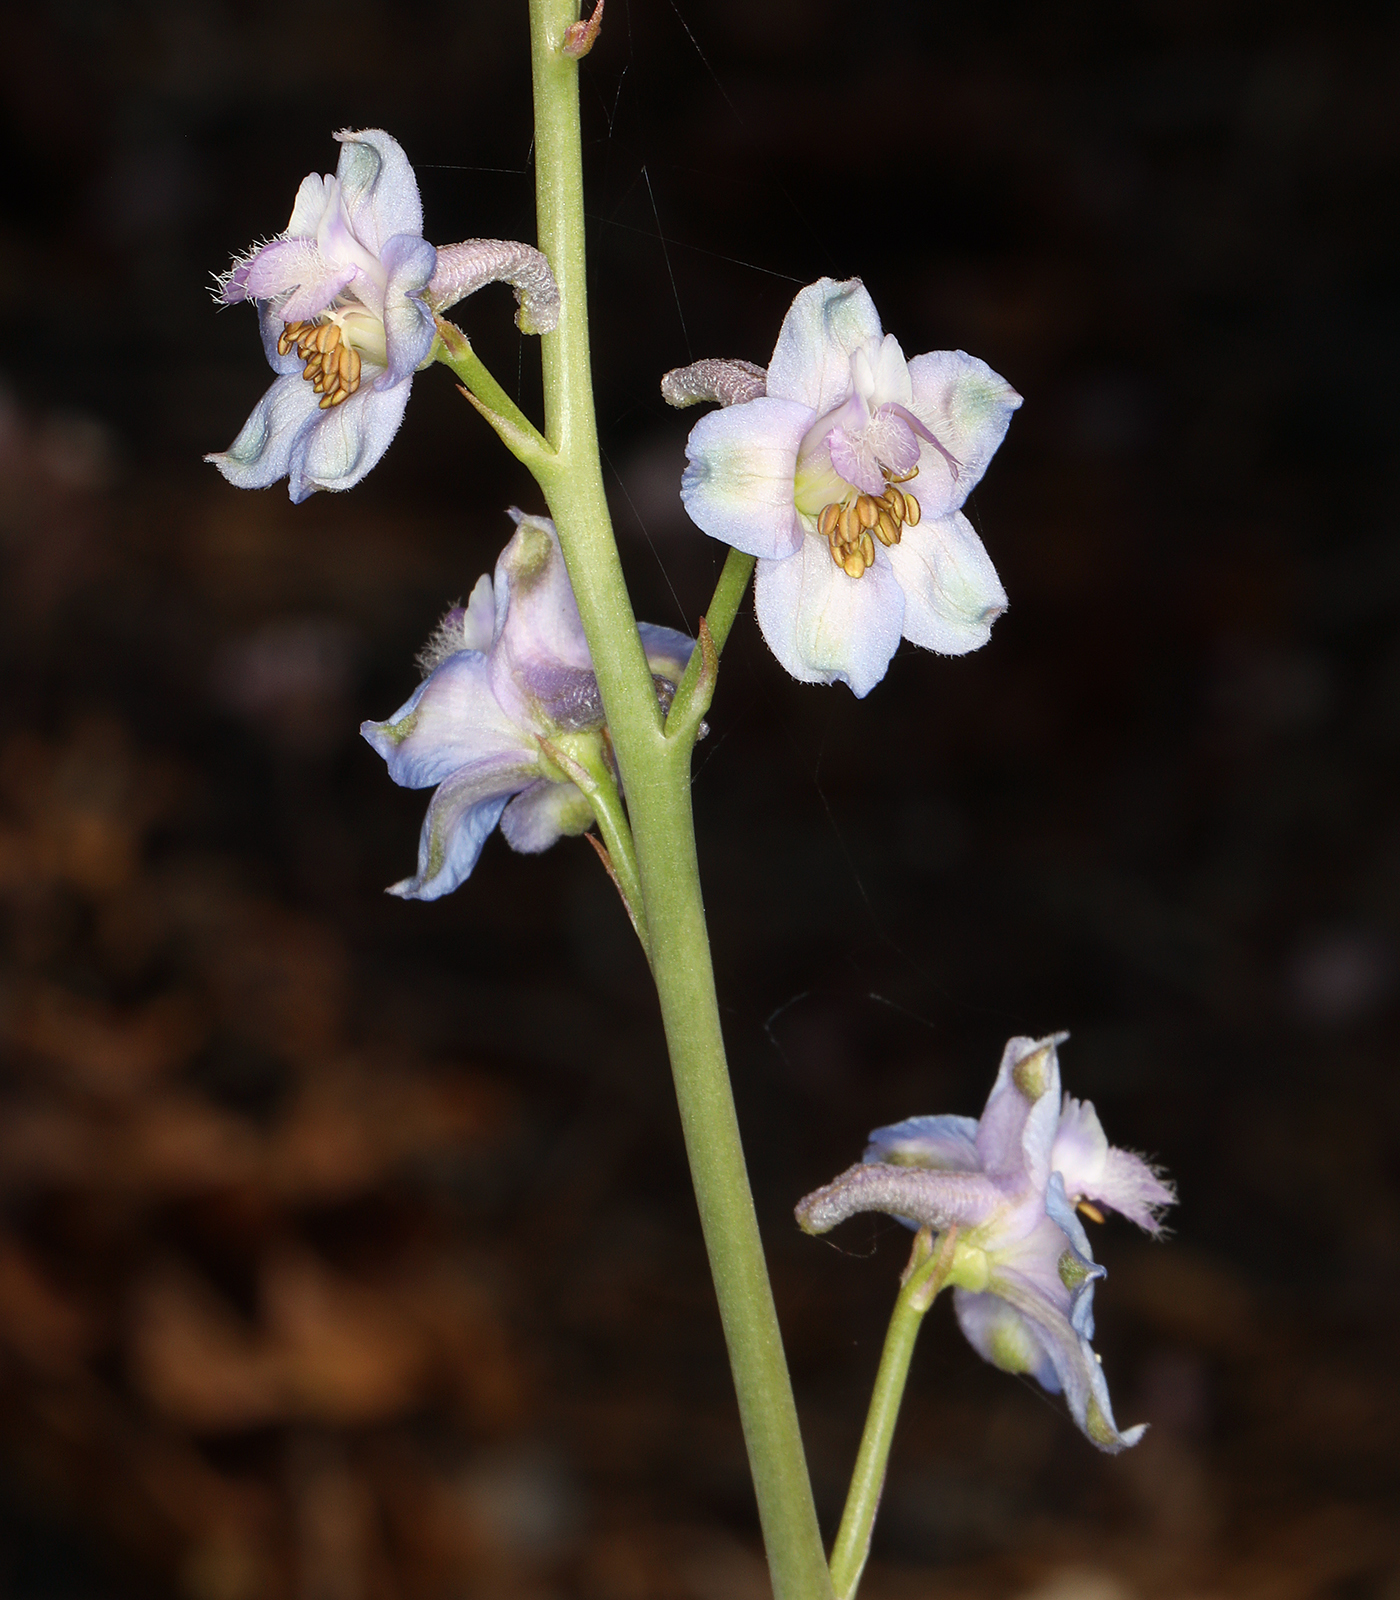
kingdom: Plantae
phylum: Tracheophyta
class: Magnoliopsida
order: Ranunculales
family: Ranunculaceae
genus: Delphinium
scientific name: Delphinium parishii
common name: Apache larkspur
